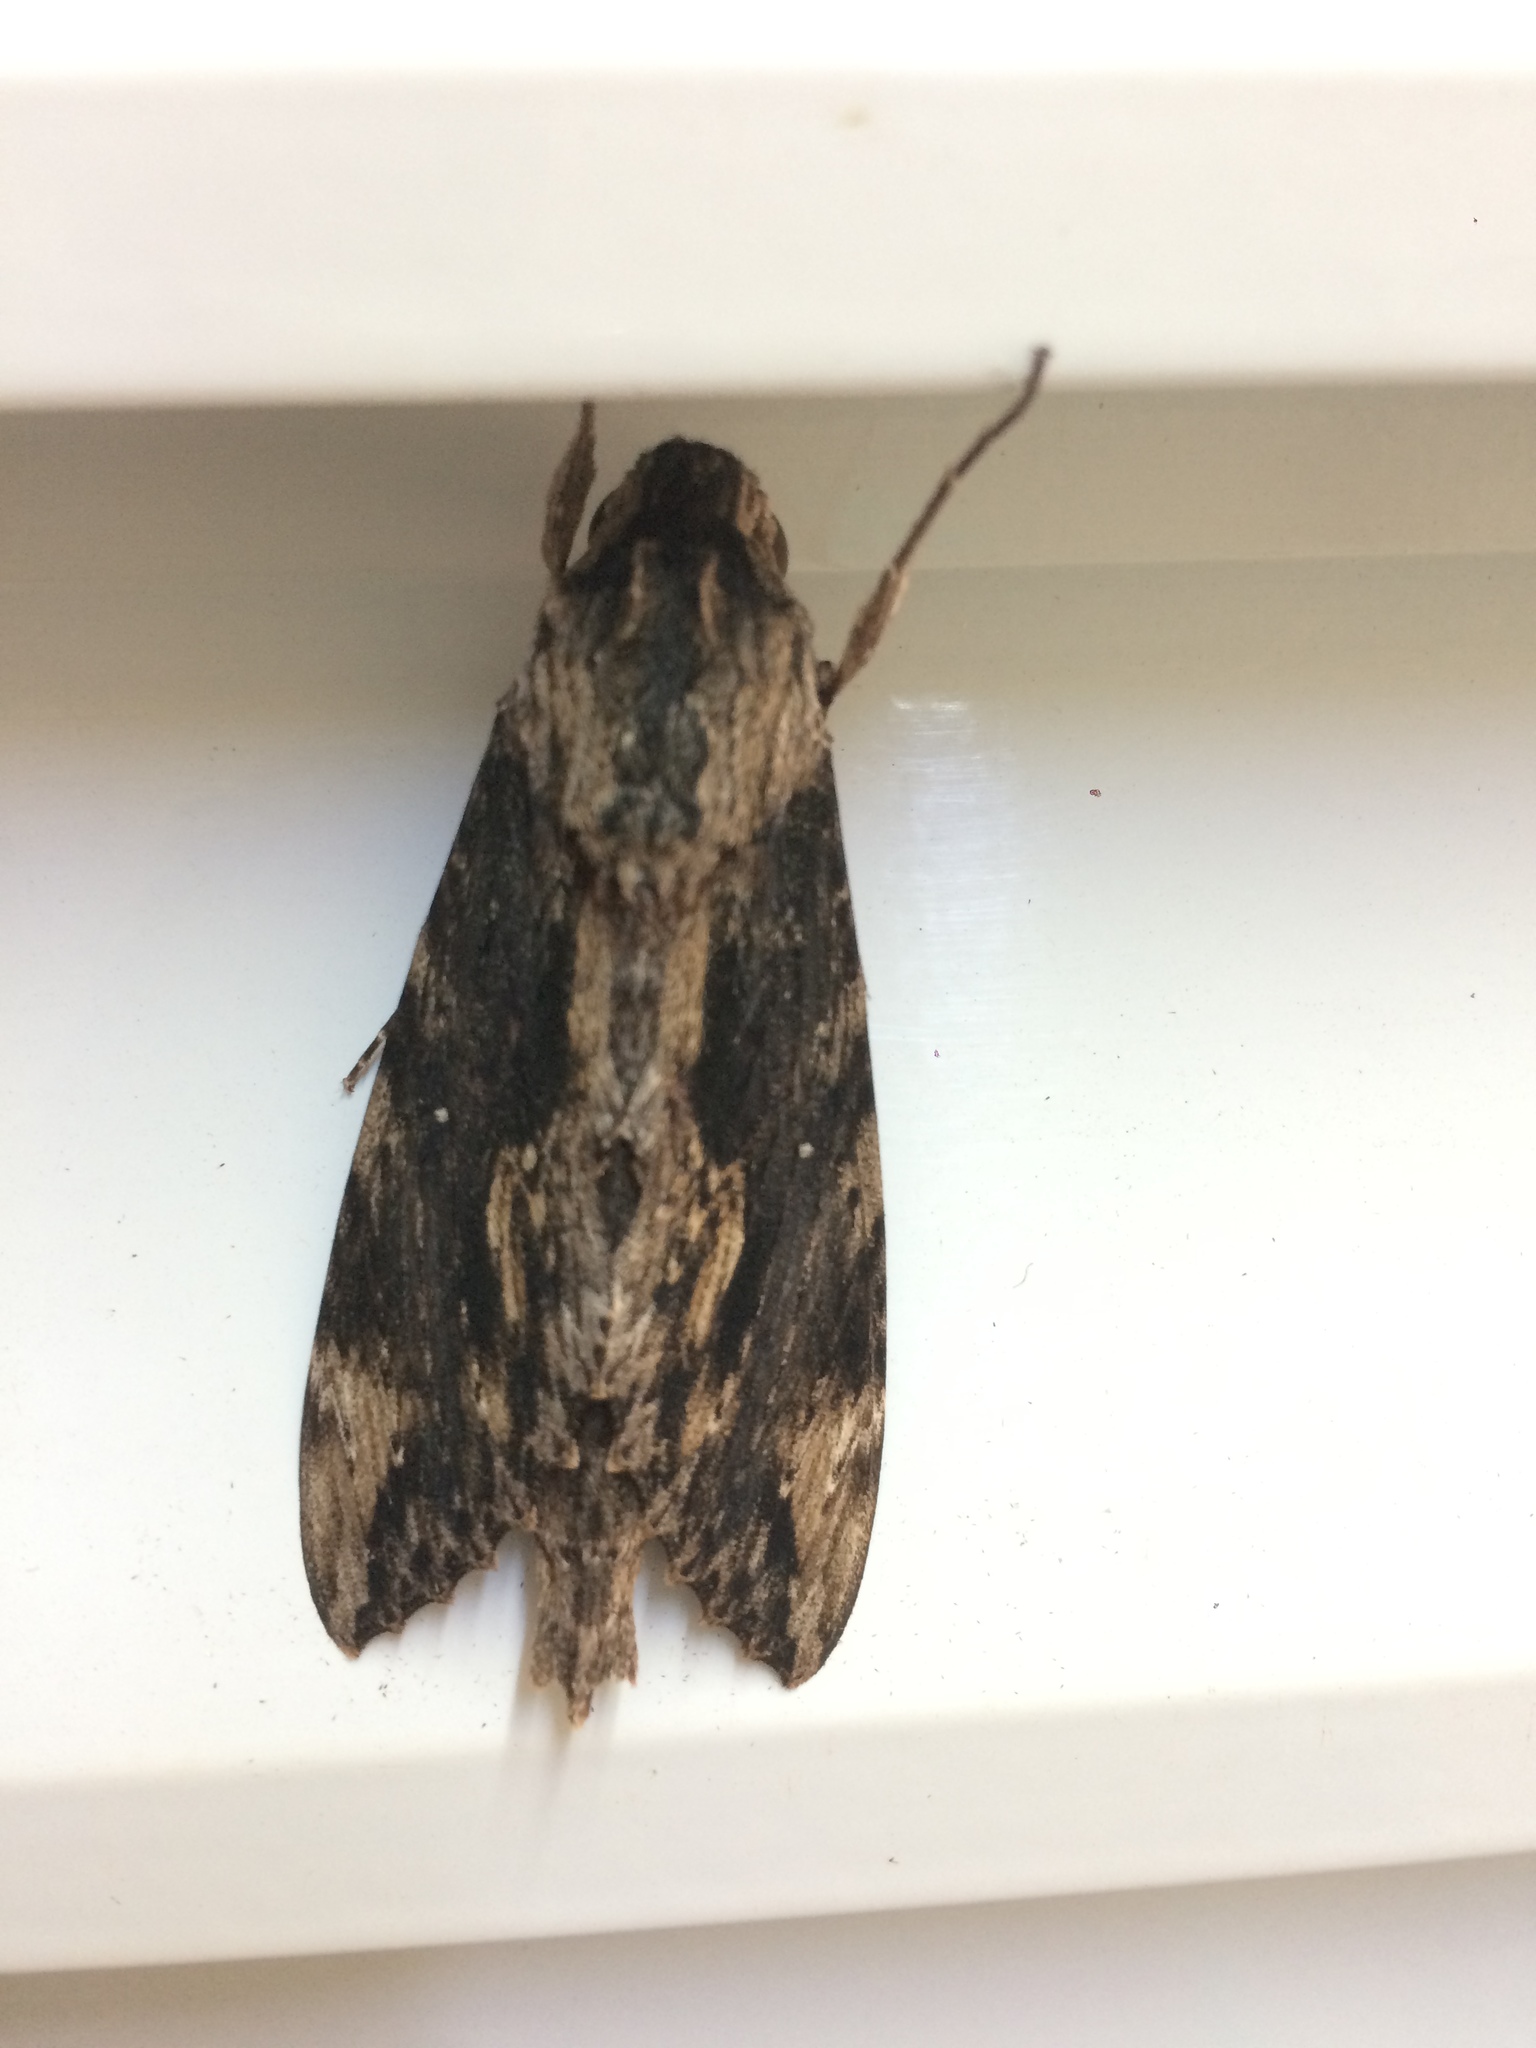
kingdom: Animalia
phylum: Arthropoda
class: Insecta
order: Lepidoptera
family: Sphingidae
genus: Erinnyis
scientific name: Erinnyis oenotrus
